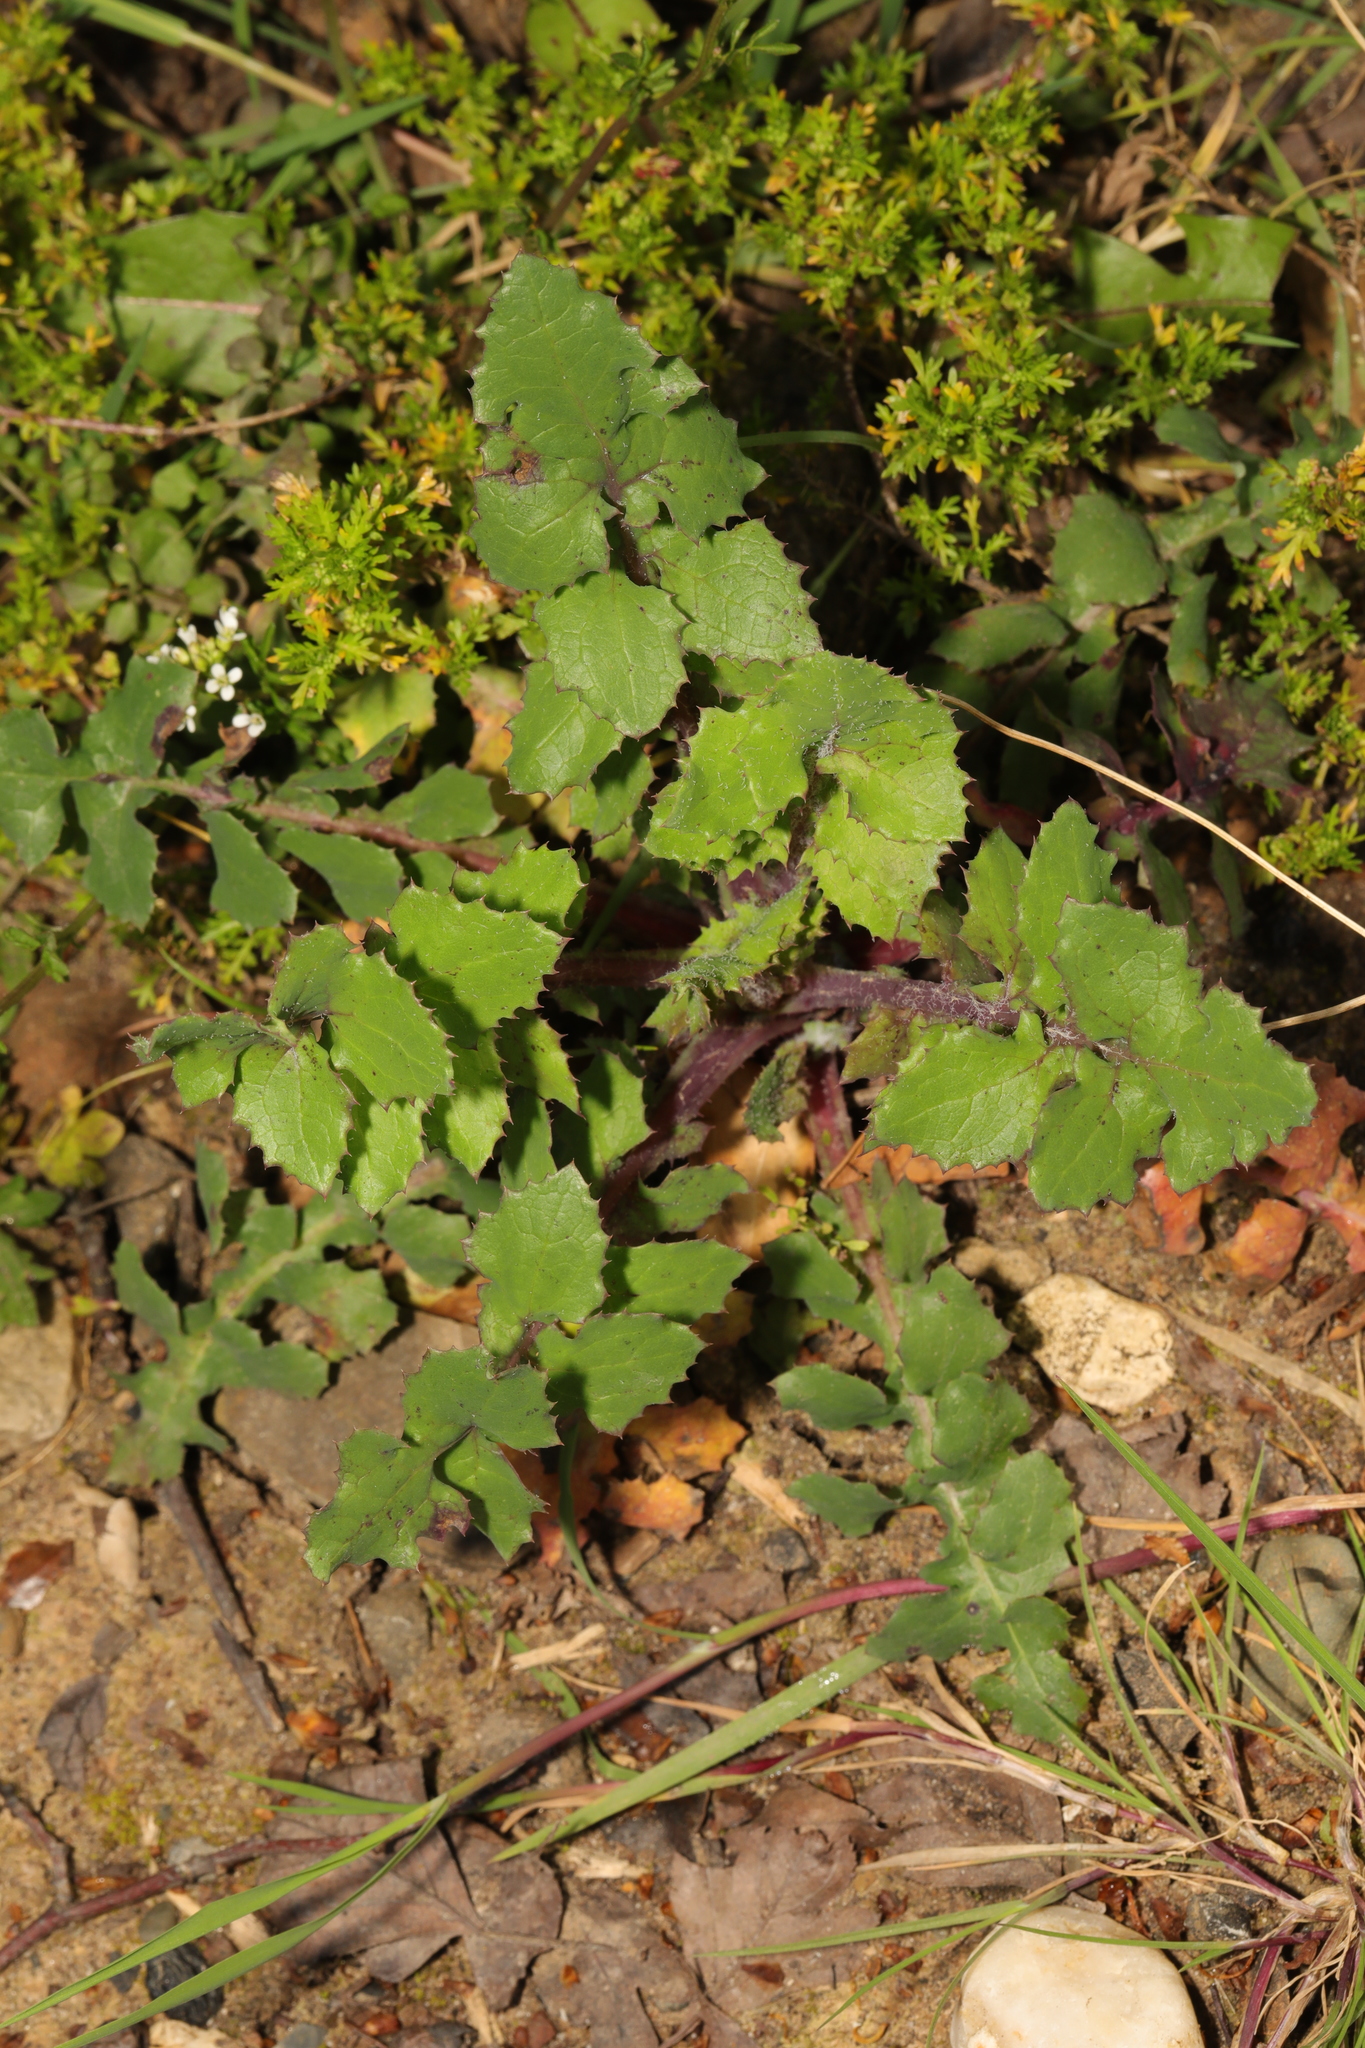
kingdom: Plantae
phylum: Tracheophyta
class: Magnoliopsida
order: Asterales
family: Asteraceae
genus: Sonchus
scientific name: Sonchus oleraceus
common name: Common sowthistle
